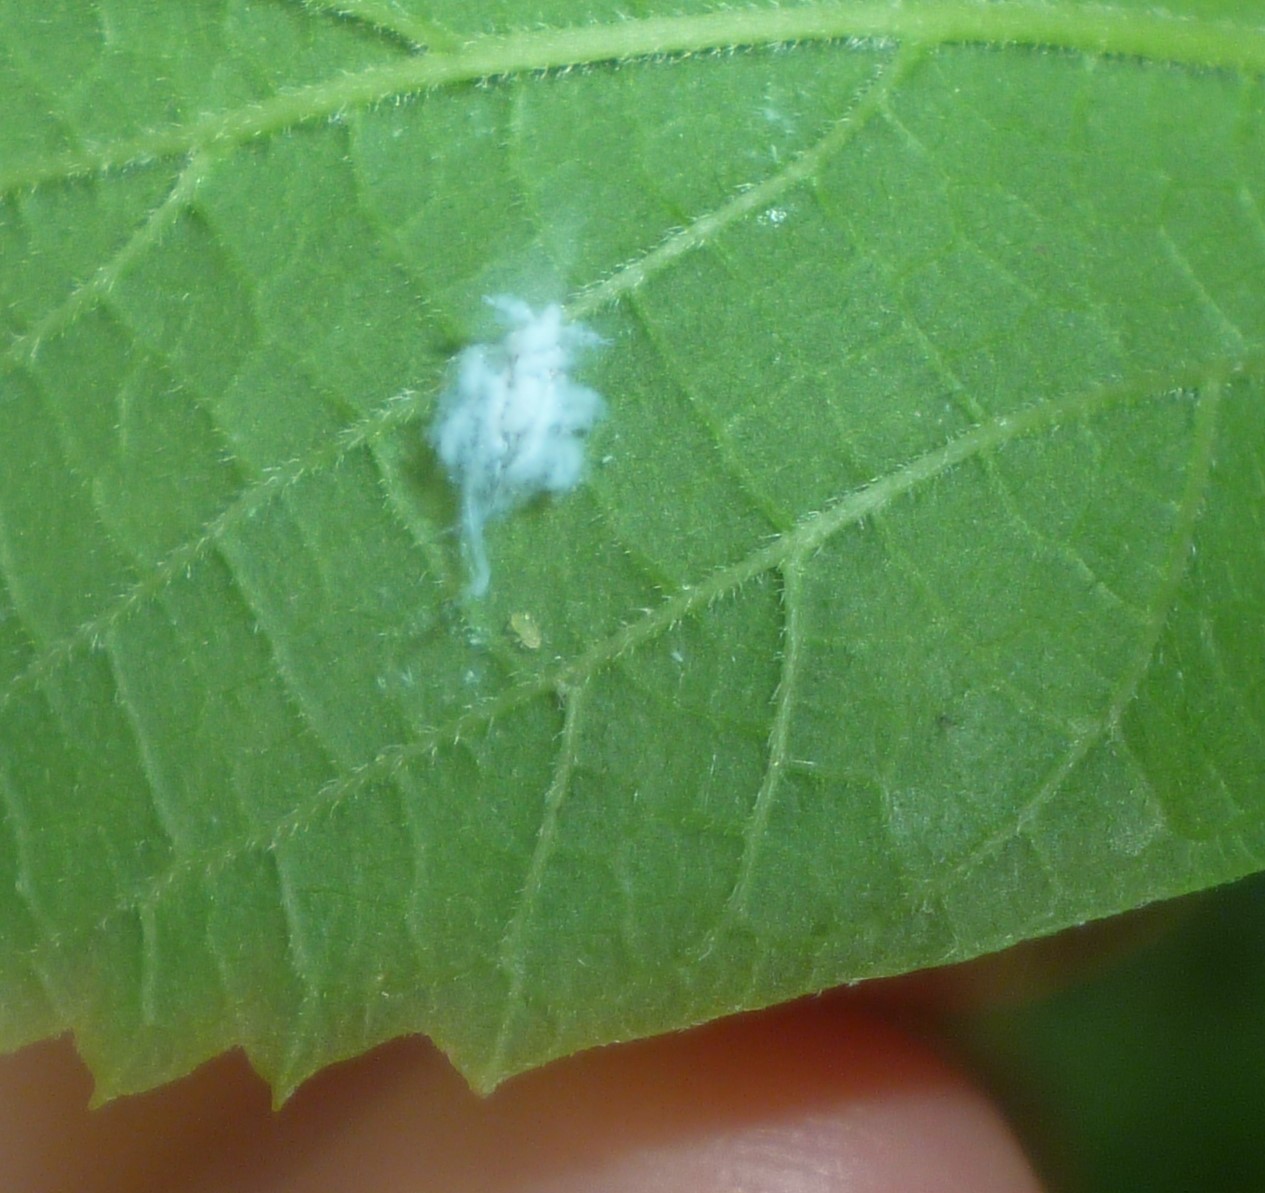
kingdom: Animalia
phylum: Arthropoda
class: Insecta
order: Hemiptera
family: Aphididae
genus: Shivaphis
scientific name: Shivaphis celti
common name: Asian wooly hackberry aphid
